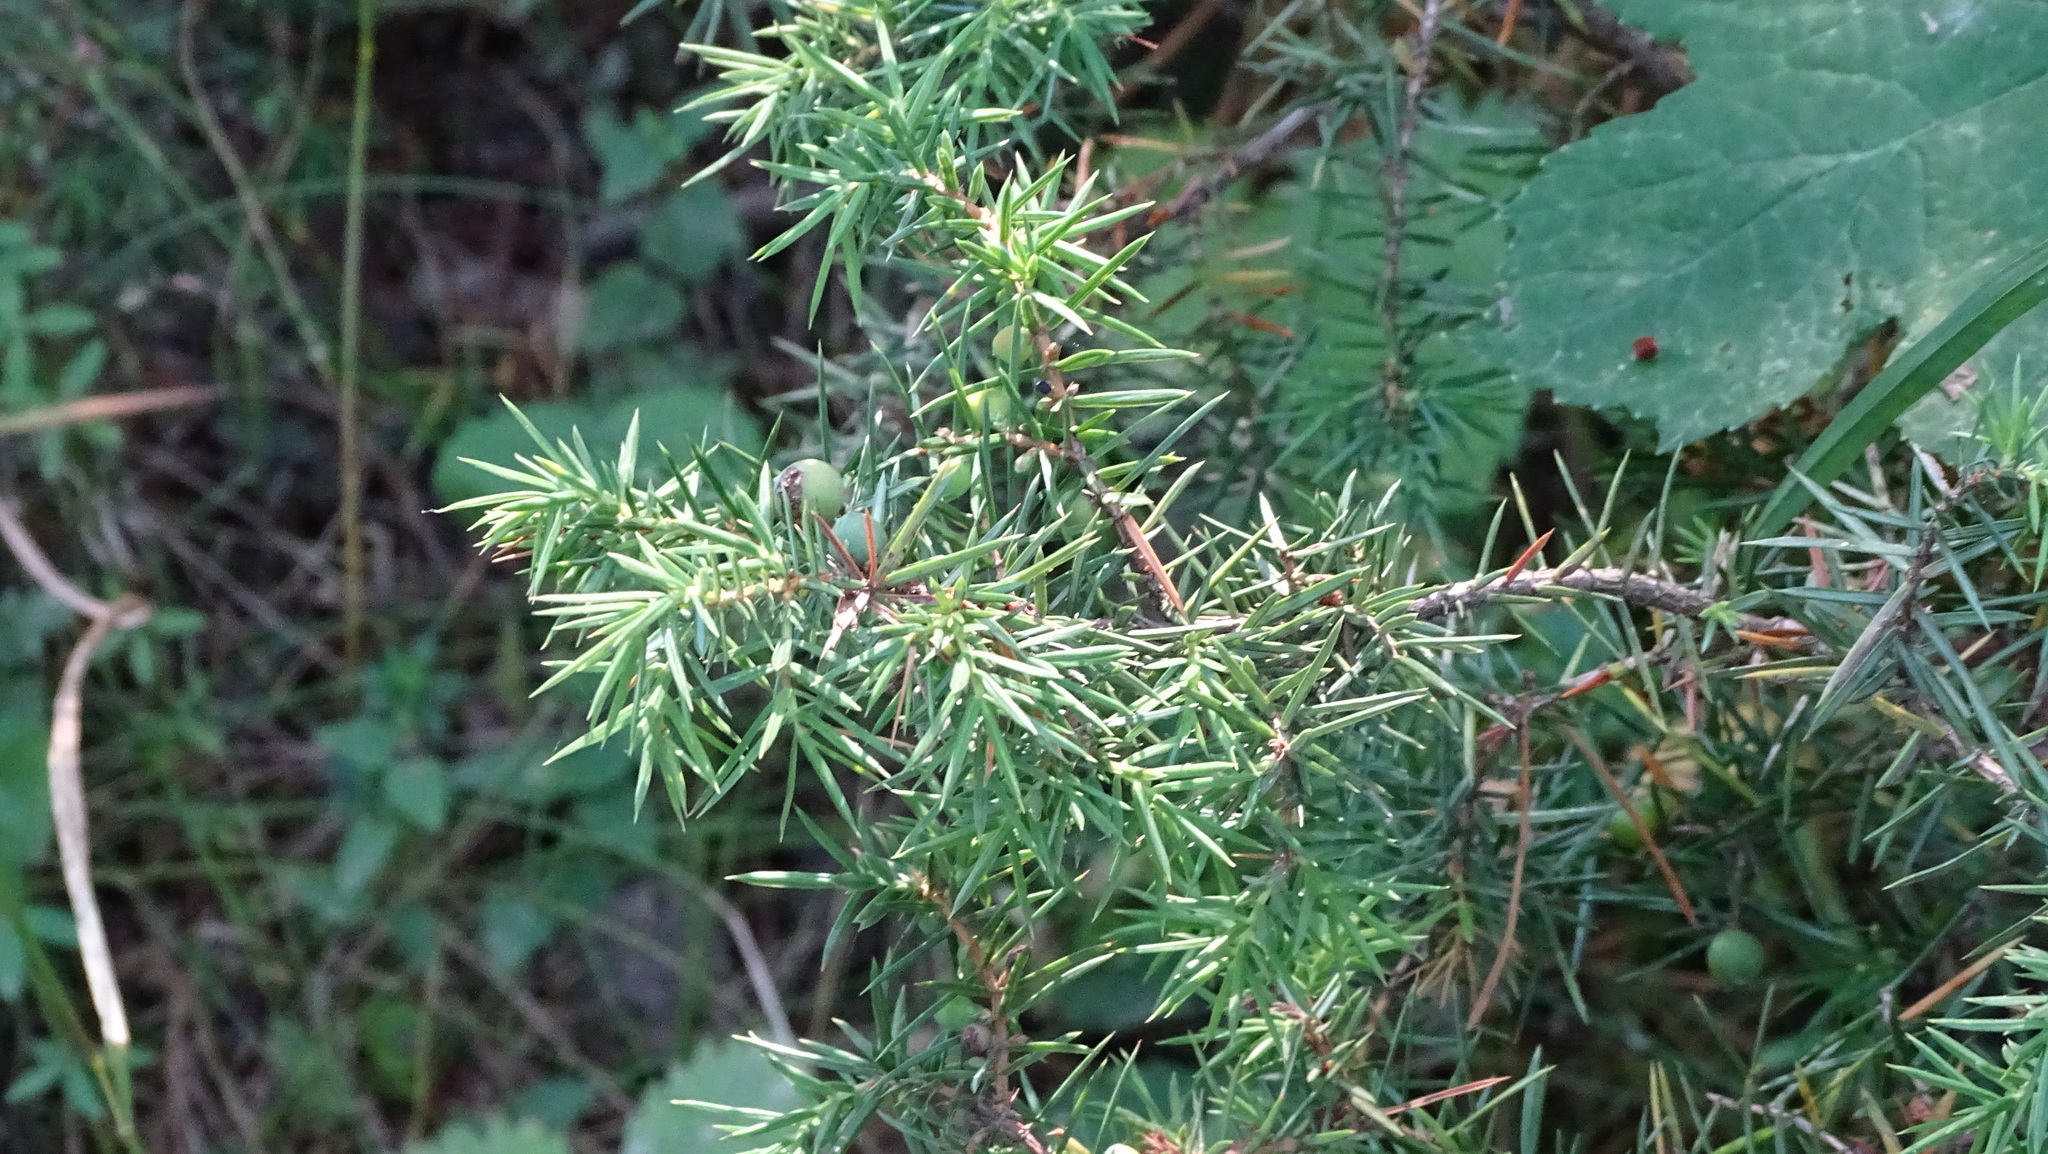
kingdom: Plantae
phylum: Tracheophyta
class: Pinopsida
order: Pinales
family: Cupressaceae
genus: Juniperus
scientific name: Juniperus communis
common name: Common juniper
